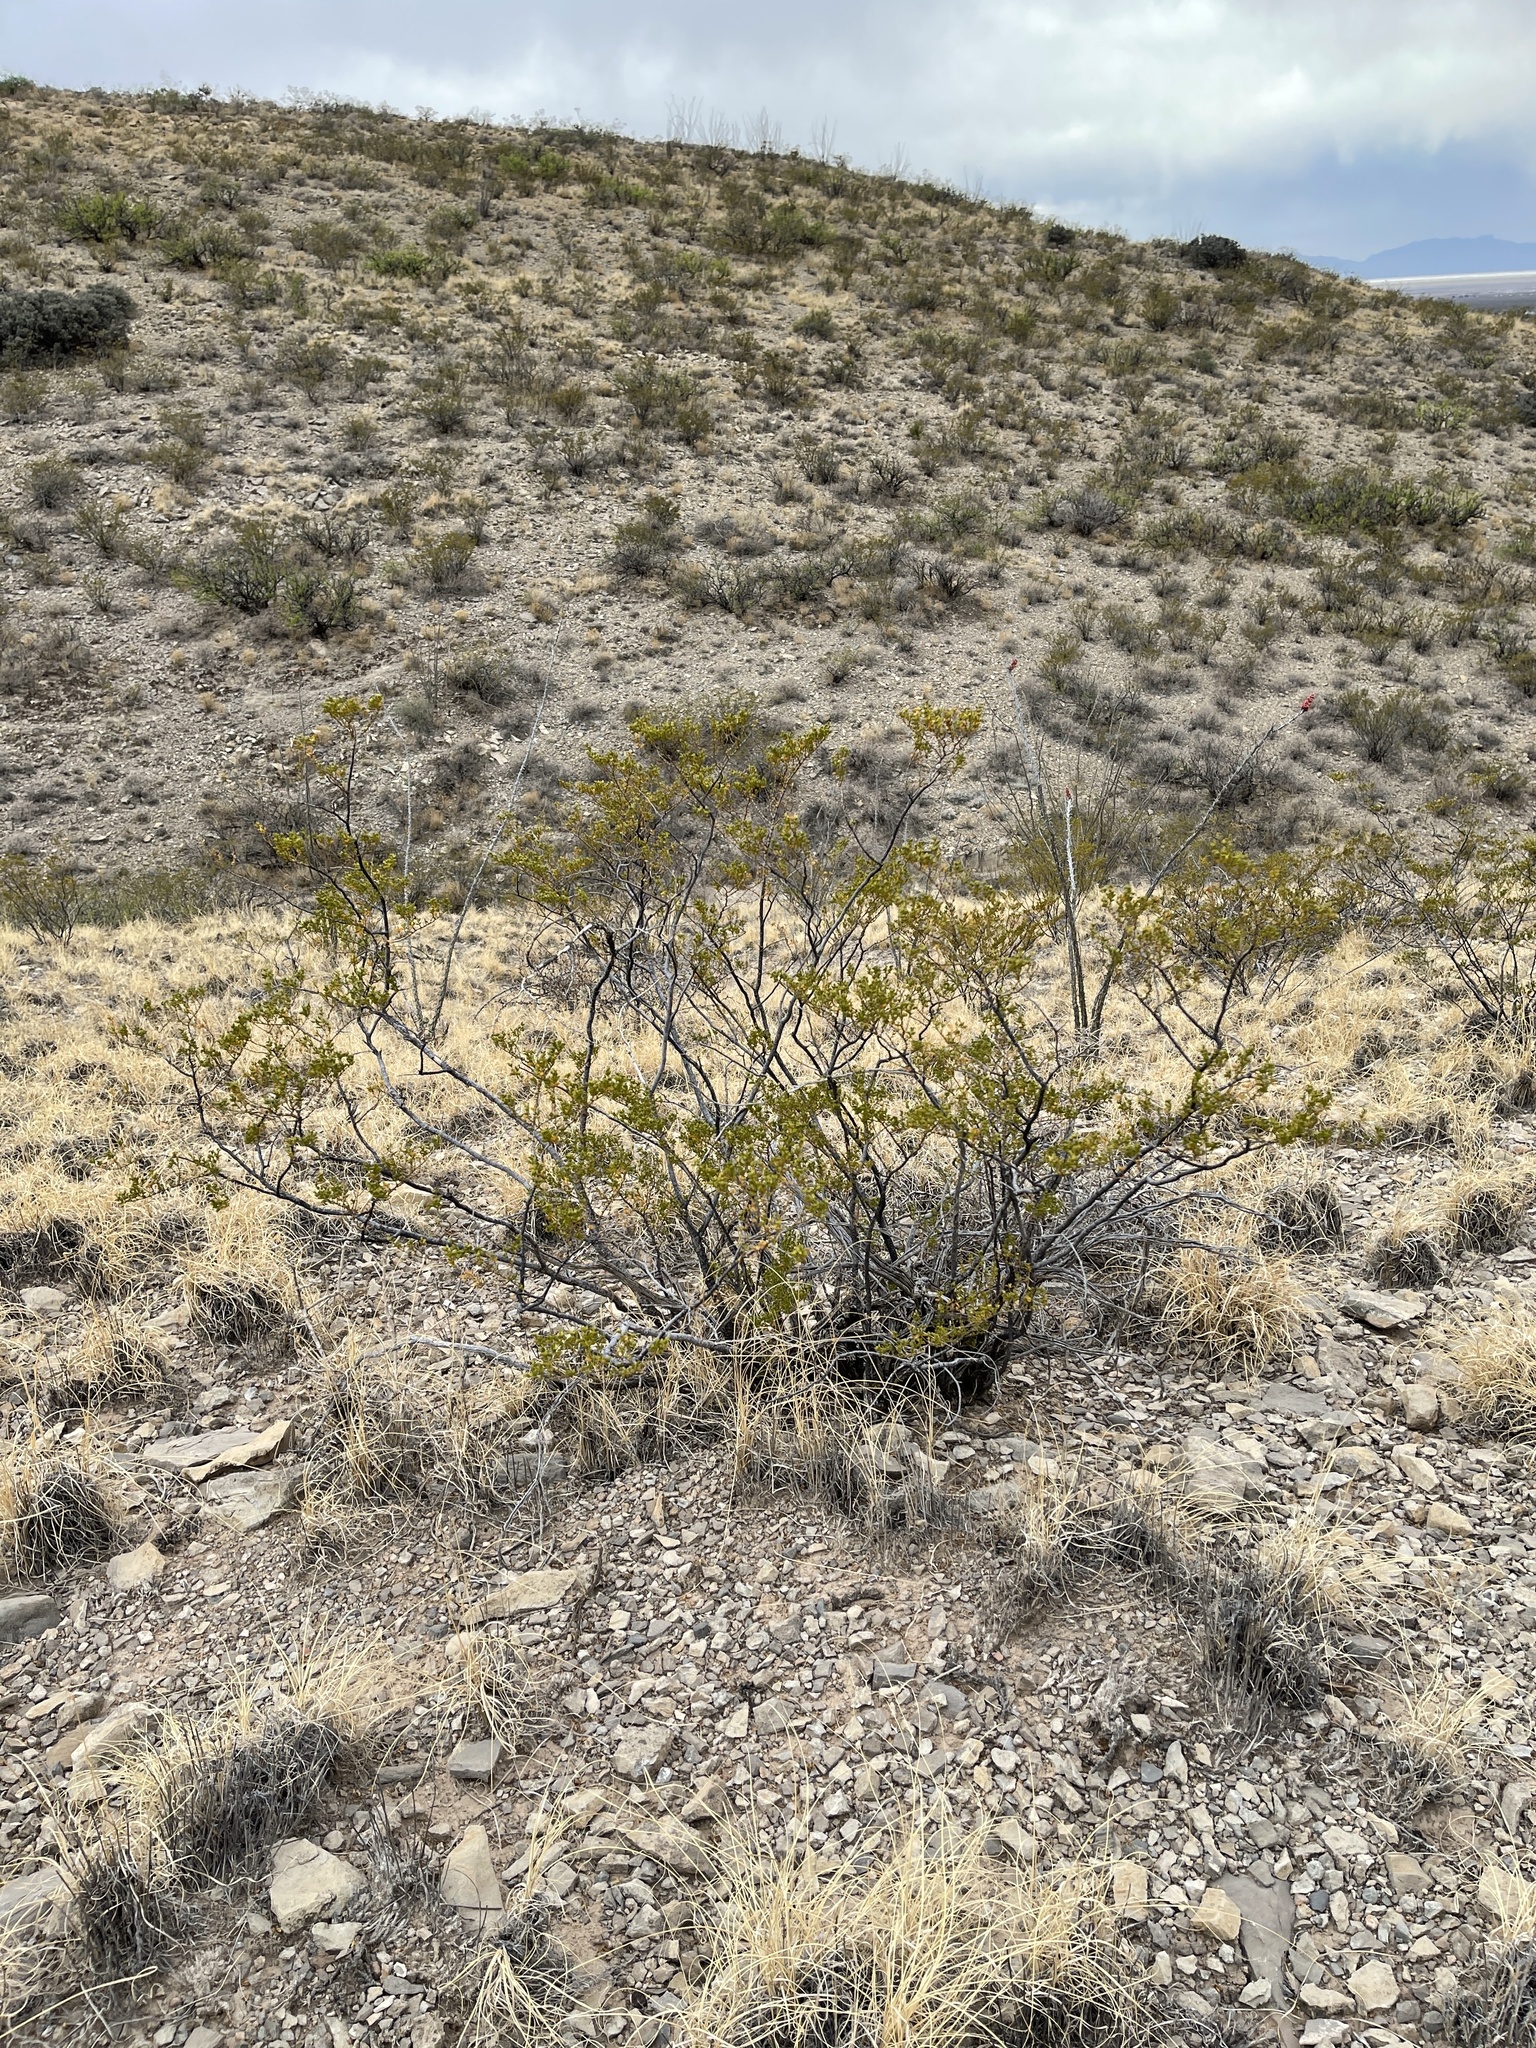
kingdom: Plantae
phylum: Tracheophyta
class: Magnoliopsida
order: Zygophyllales
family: Zygophyllaceae
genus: Larrea
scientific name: Larrea tridentata
